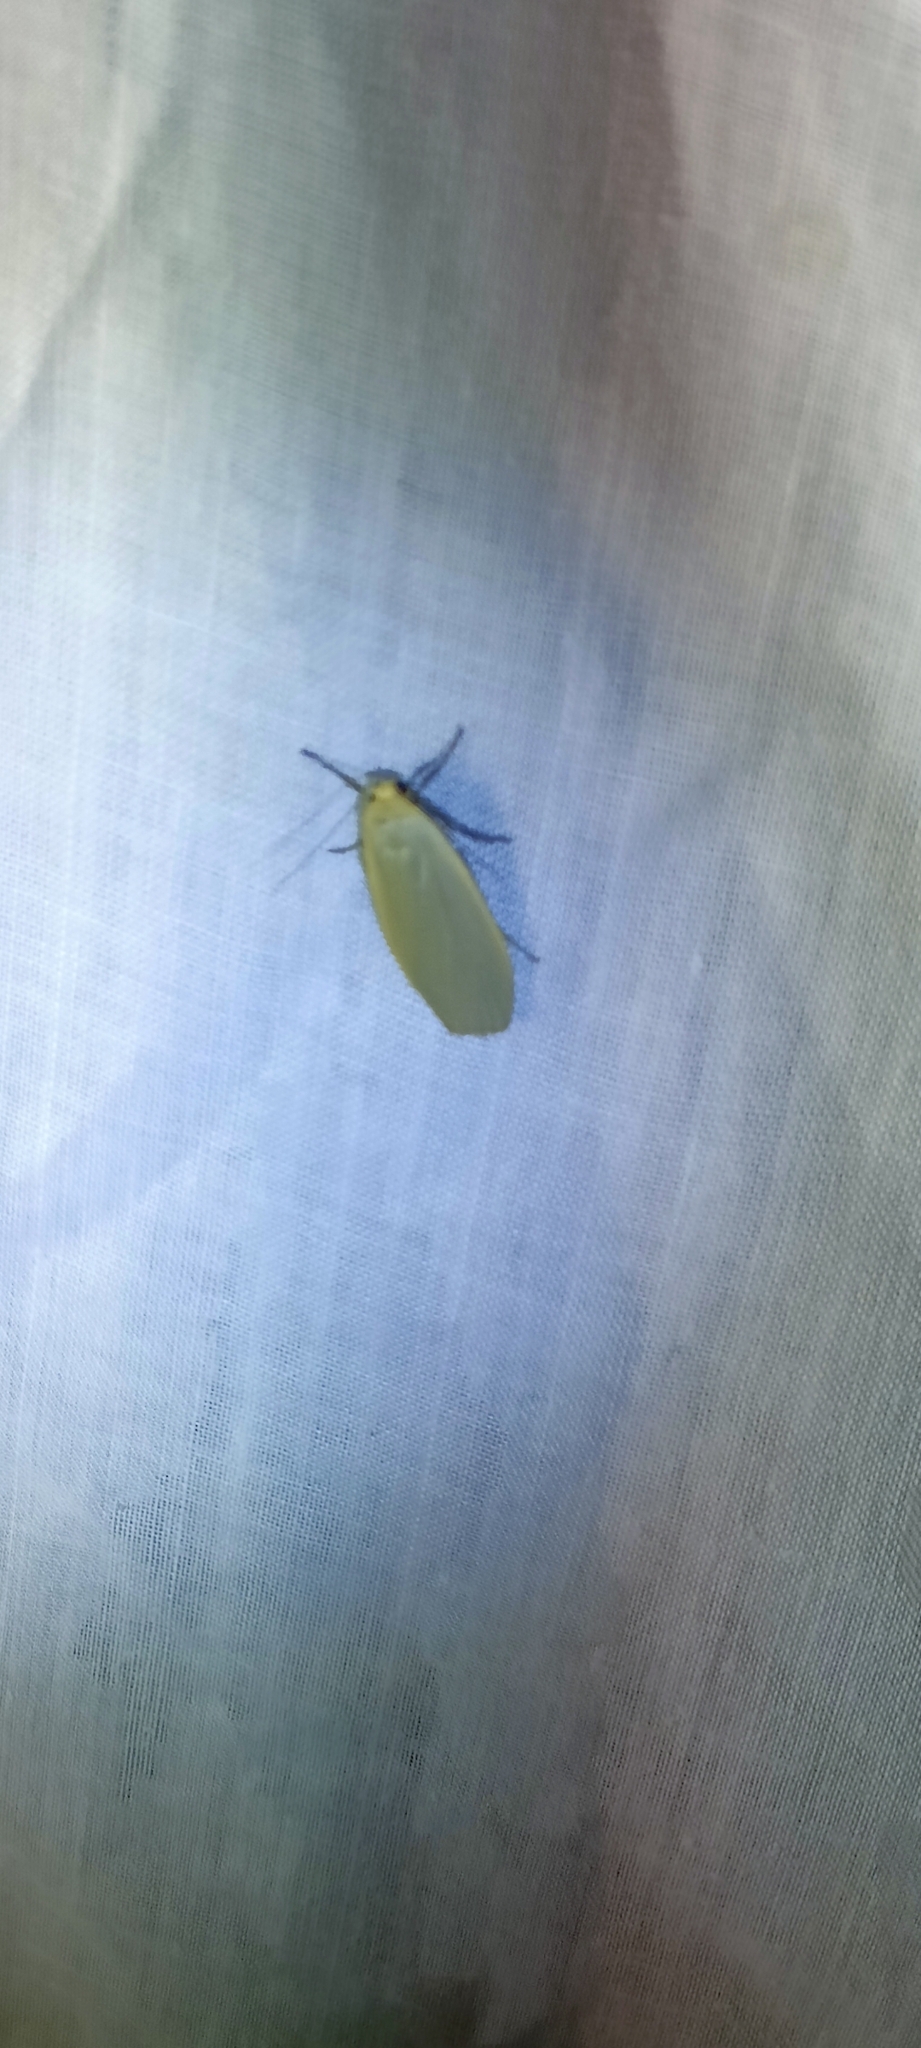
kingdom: Animalia
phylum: Arthropoda
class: Insecta
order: Lepidoptera
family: Erebidae
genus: Collita
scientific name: Collita griseola
